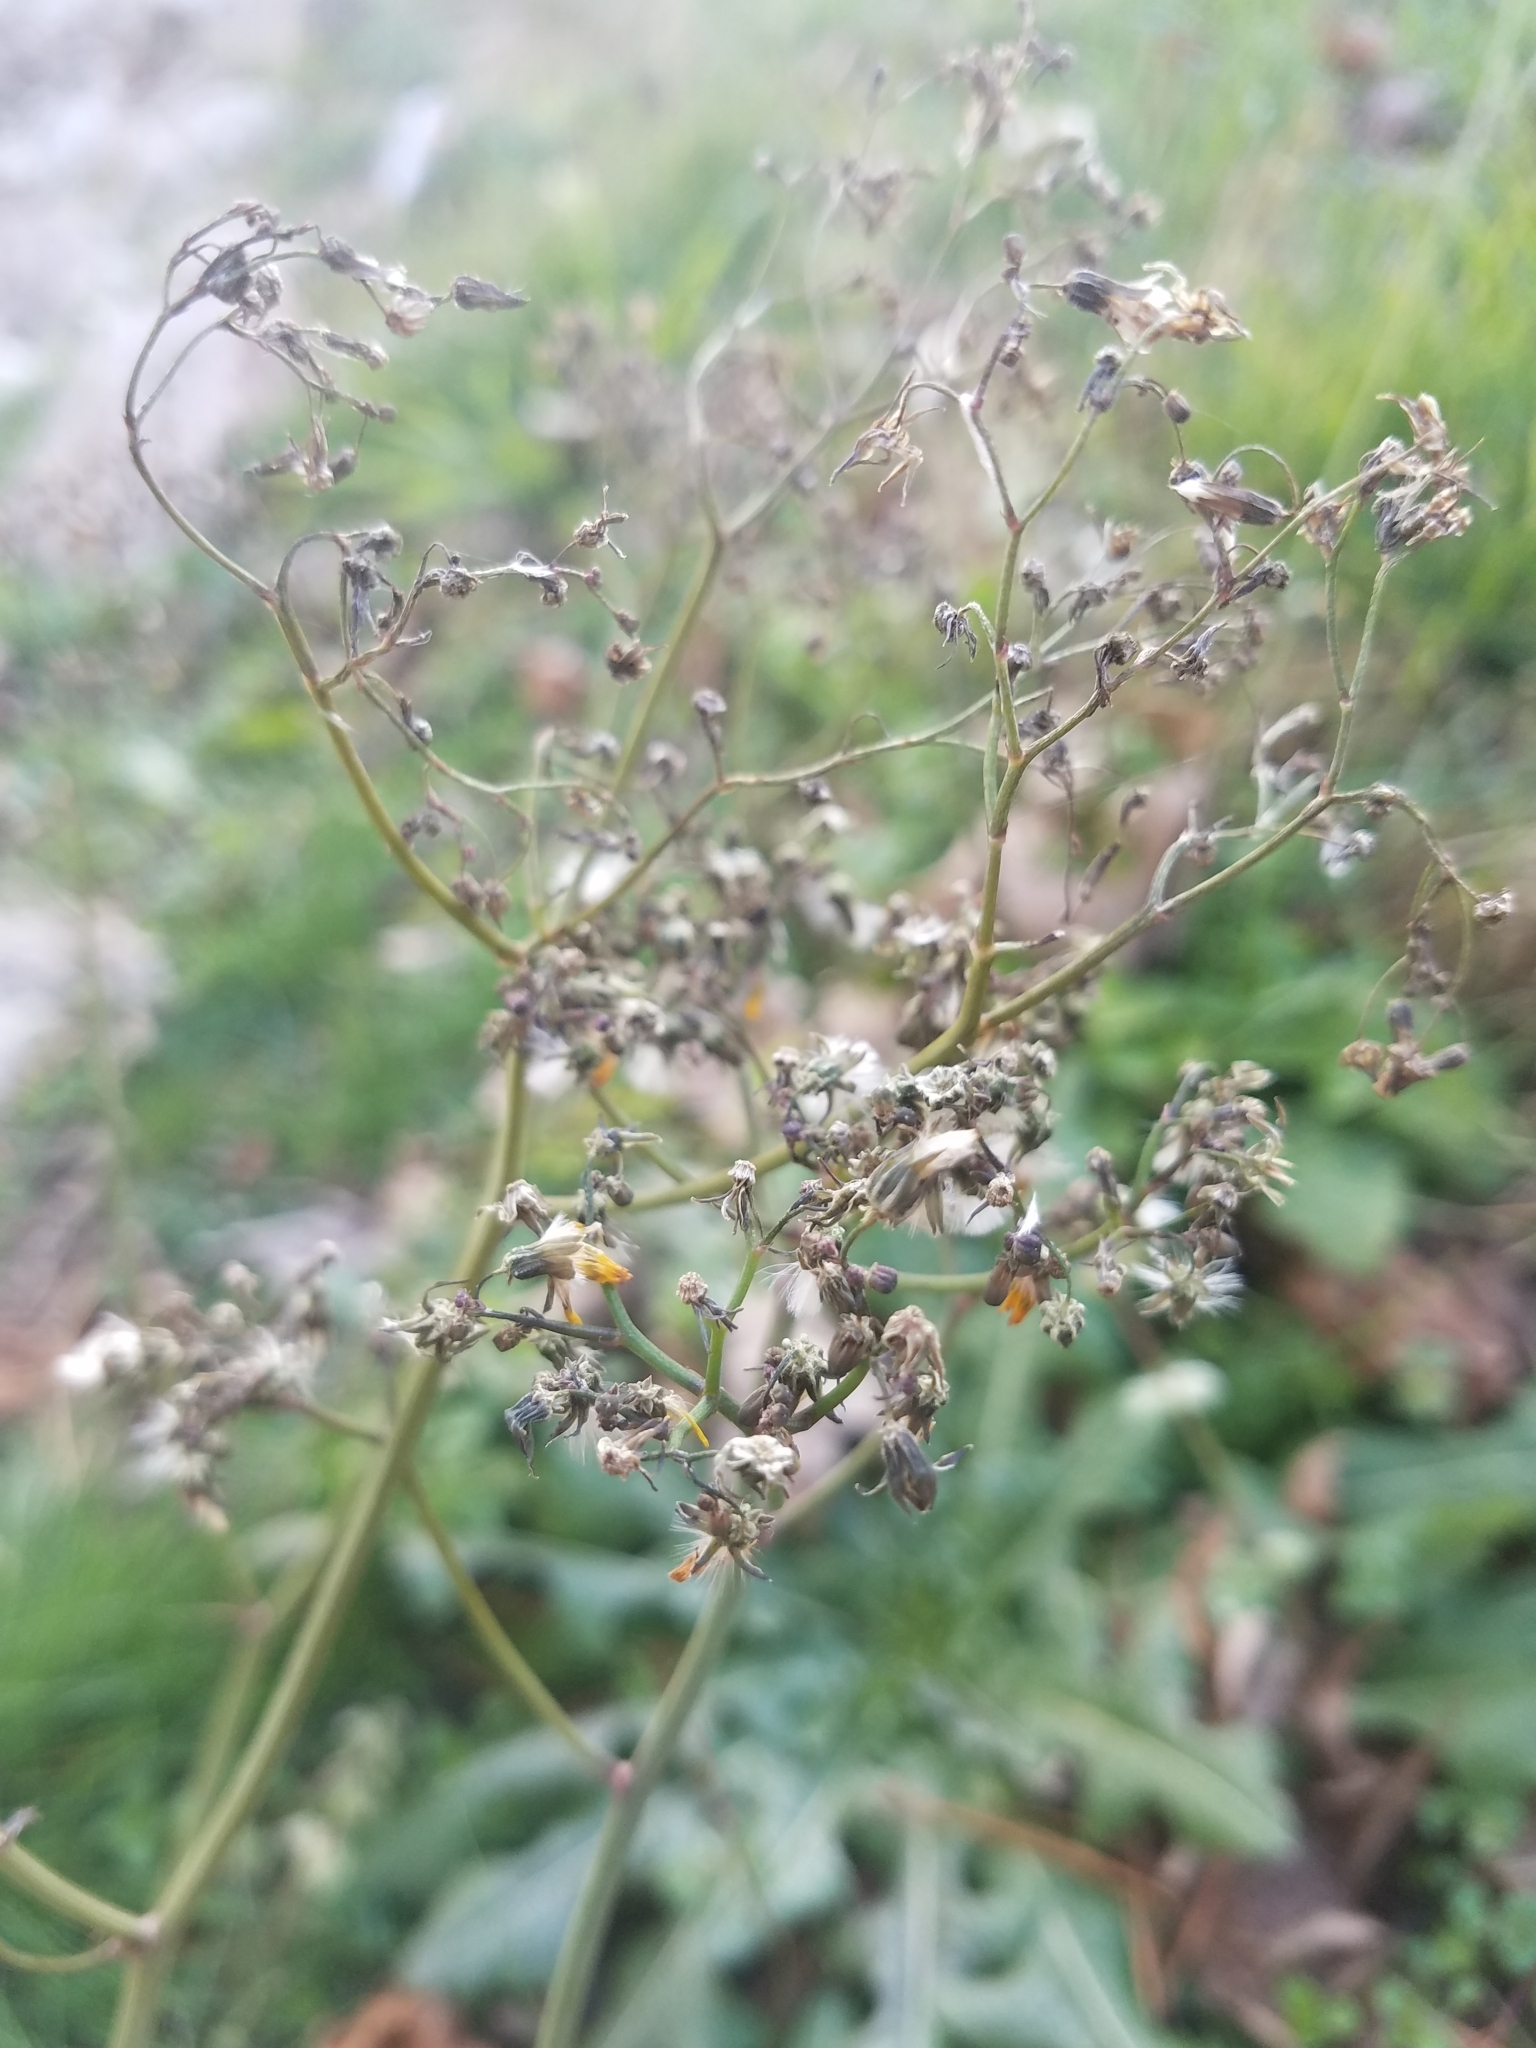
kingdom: Plantae
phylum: Tracheophyta
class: Magnoliopsida
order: Asterales
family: Asteraceae
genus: Youngia
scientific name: Youngia japonica
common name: Oriental false hawksbeard
